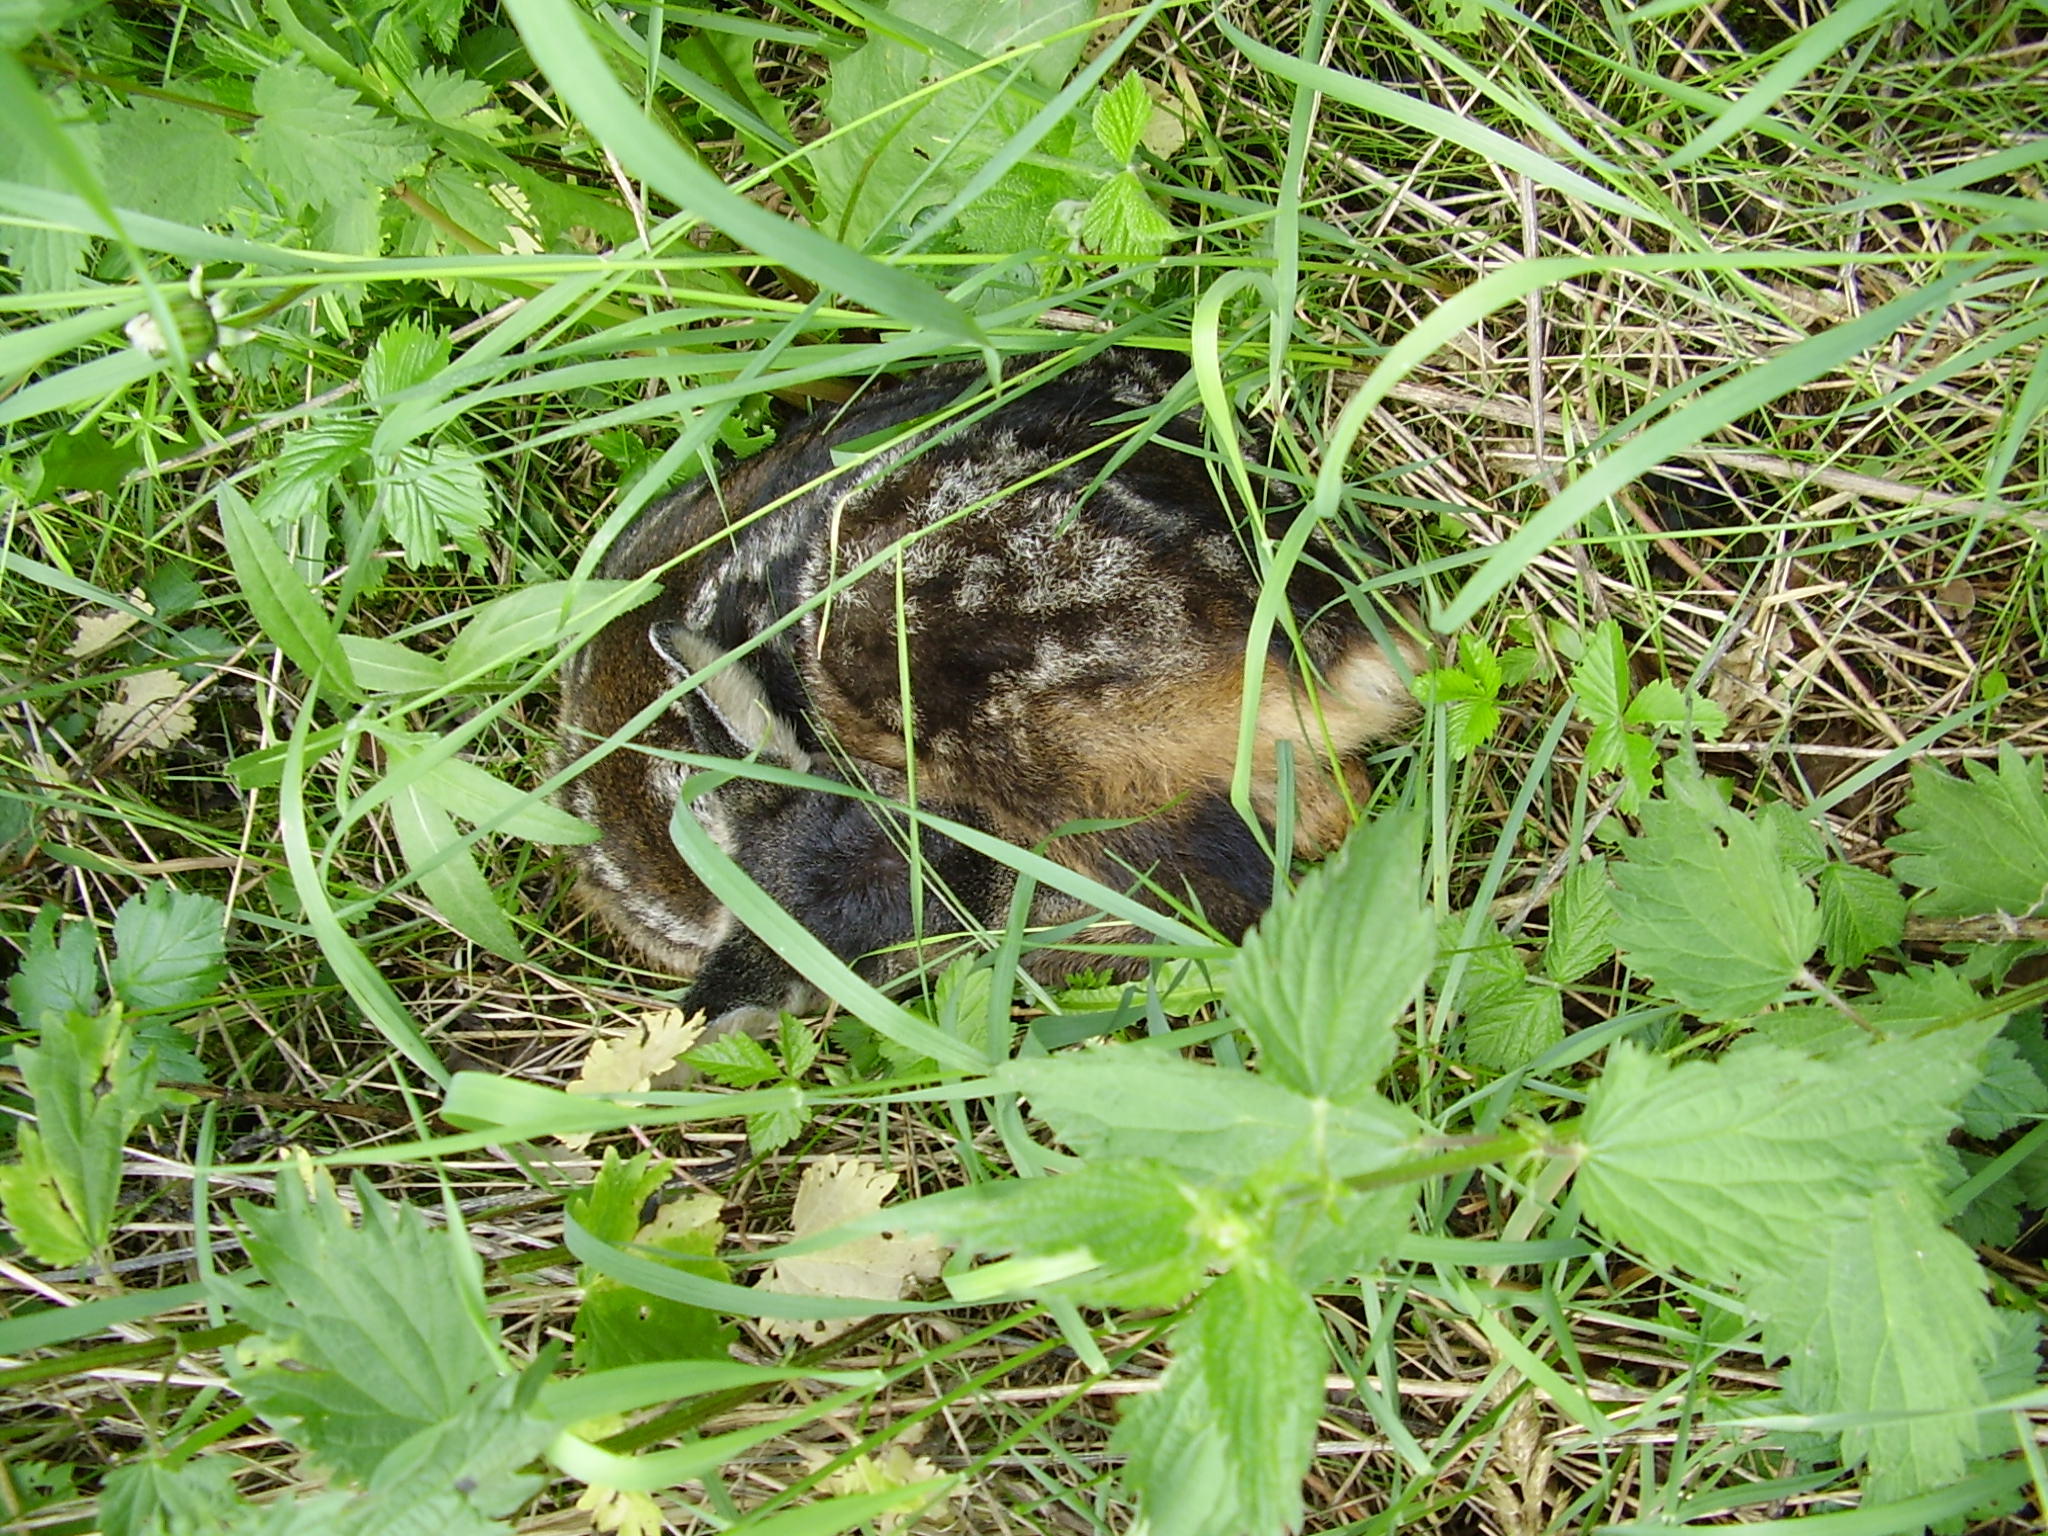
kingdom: Animalia
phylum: Chordata
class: Mammalia
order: Artiodactyla
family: Cervidae
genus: Capreolus
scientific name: Capreolus capreolus
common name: Western roe deer
